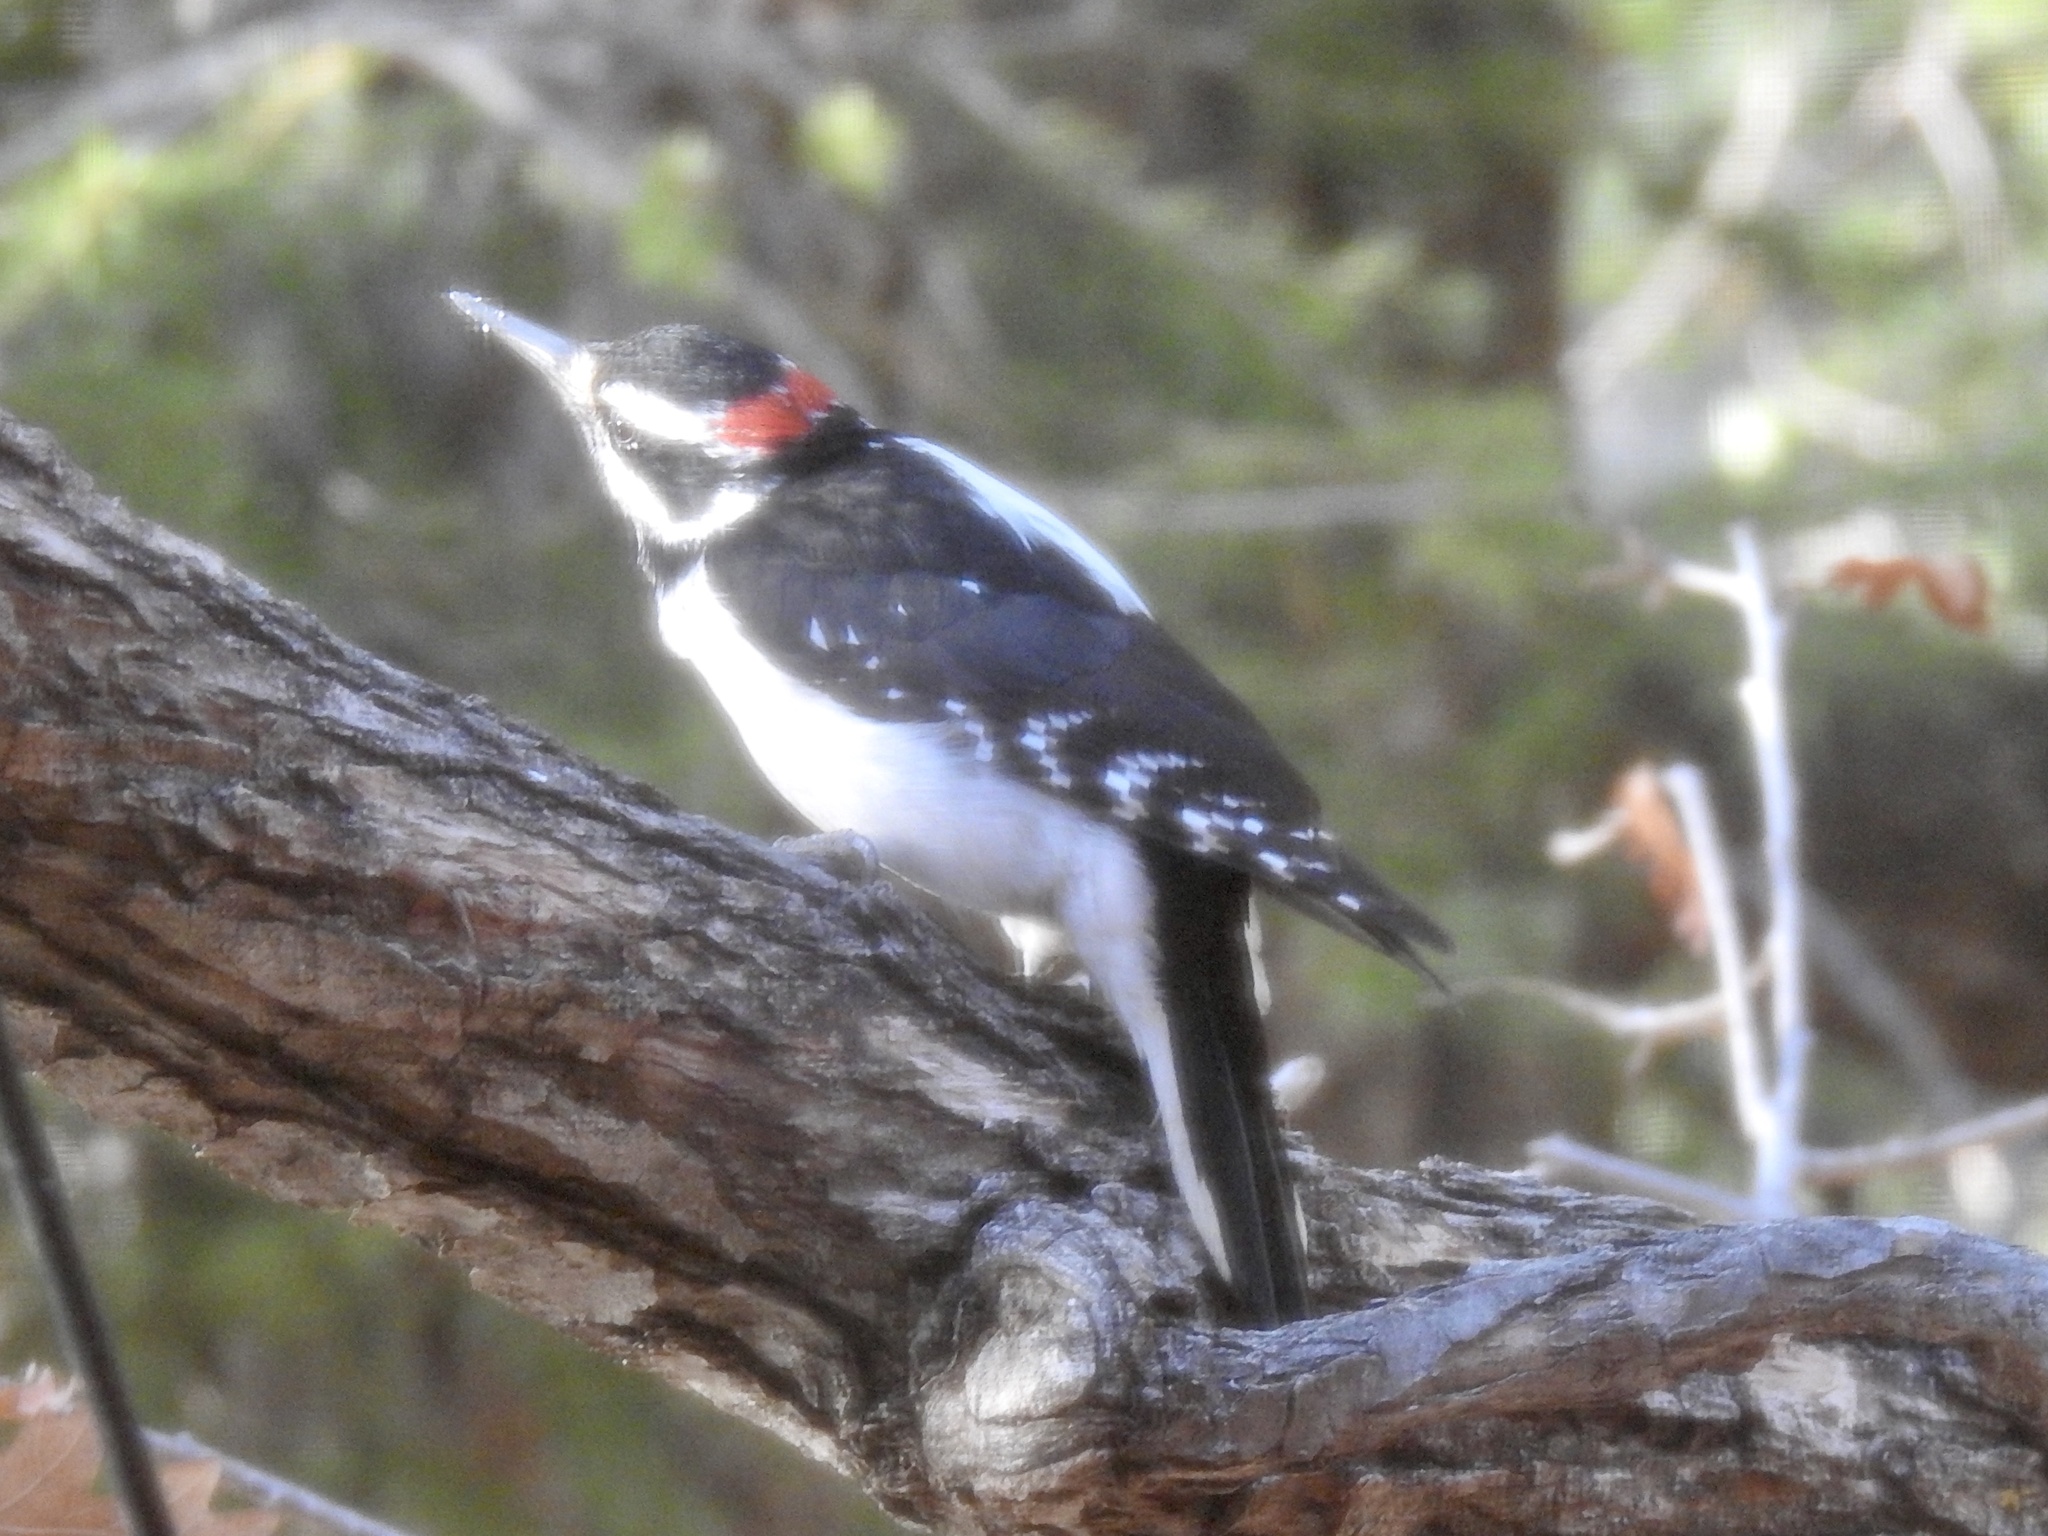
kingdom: Animalia
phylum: Chordata
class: Aves
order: Piciformes
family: Picidae
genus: Leuconotopicus
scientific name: Leuconotopicus villosus
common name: Hairy woodpecker
